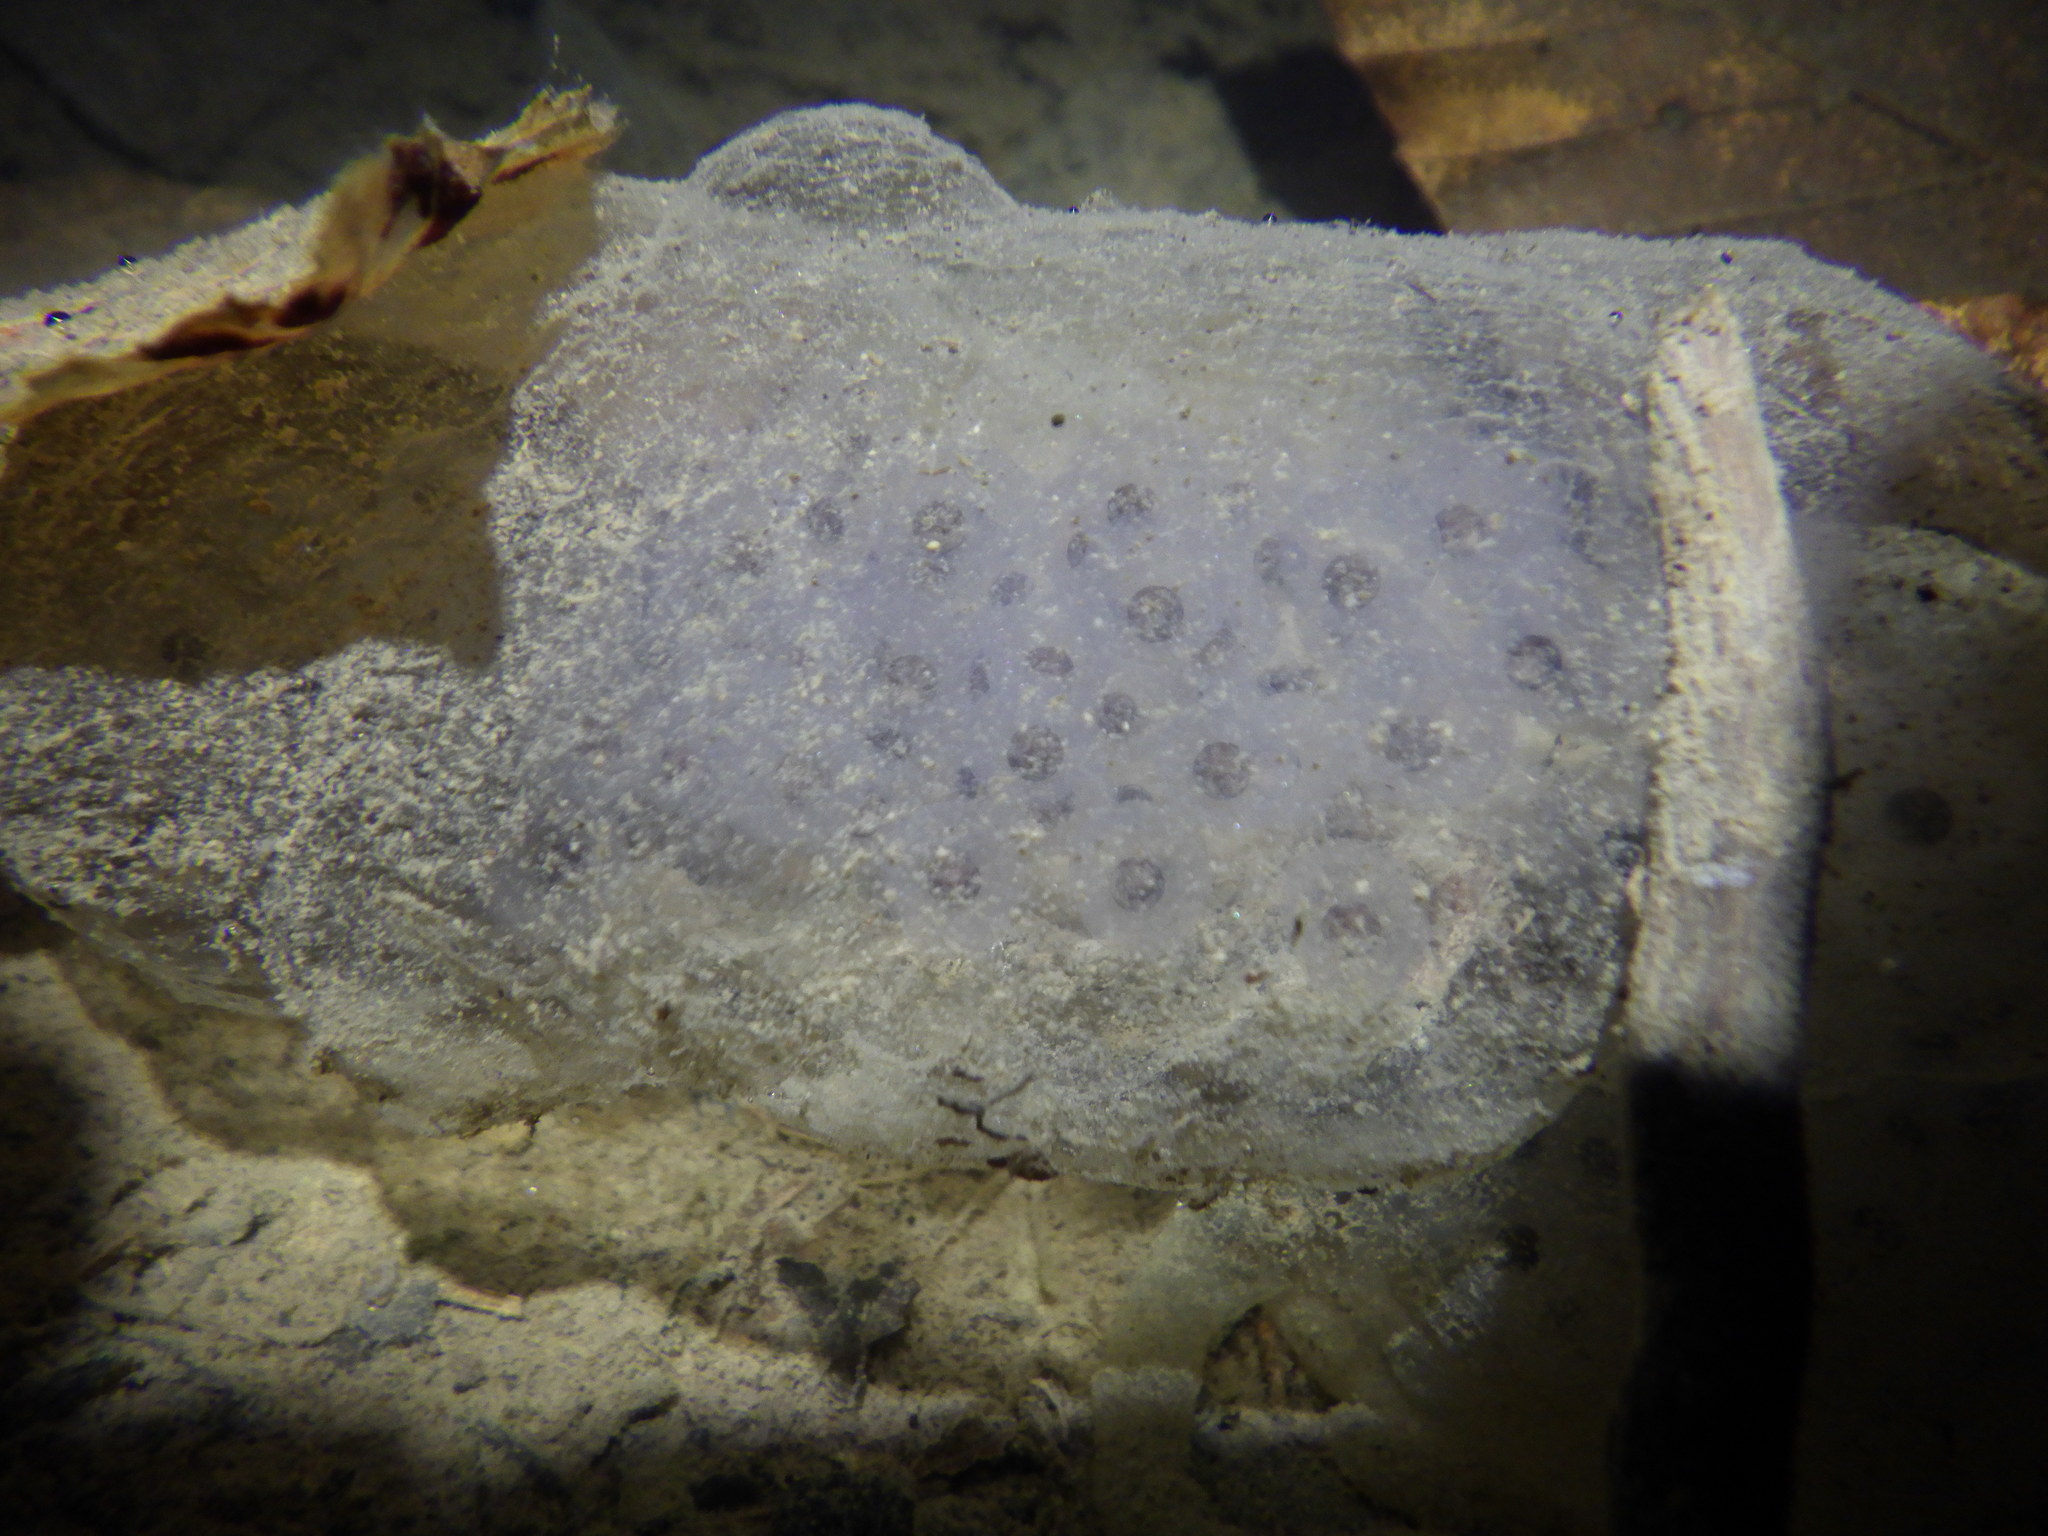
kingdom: Animalia
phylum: Chordata
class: Amphibia
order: Caudata
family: Ambystomatidae
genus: Ambystoma
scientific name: Ambystoma maculatum
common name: Spotted salamander
